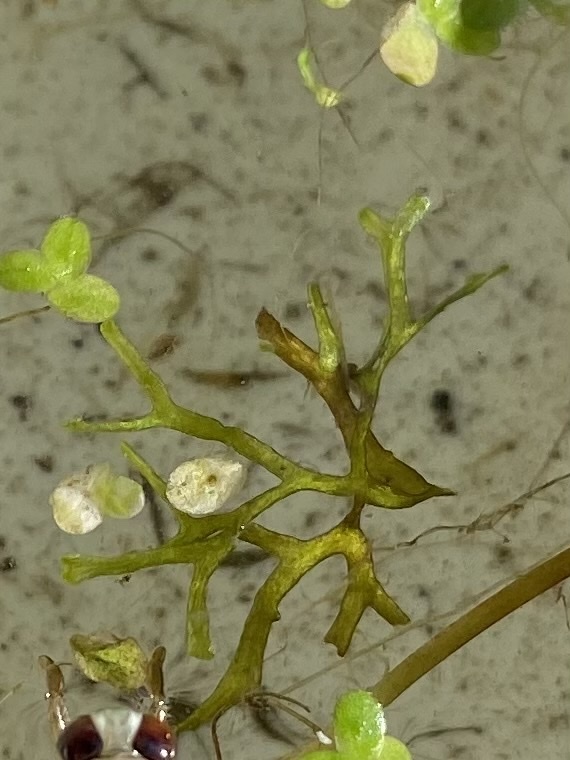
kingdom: Plantae
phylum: Marchantiophyta
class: Marchantiopsida
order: Marchantiales
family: Ricciaceae
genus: Riccia
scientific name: Riccia fluitans
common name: Floating crystalwort
